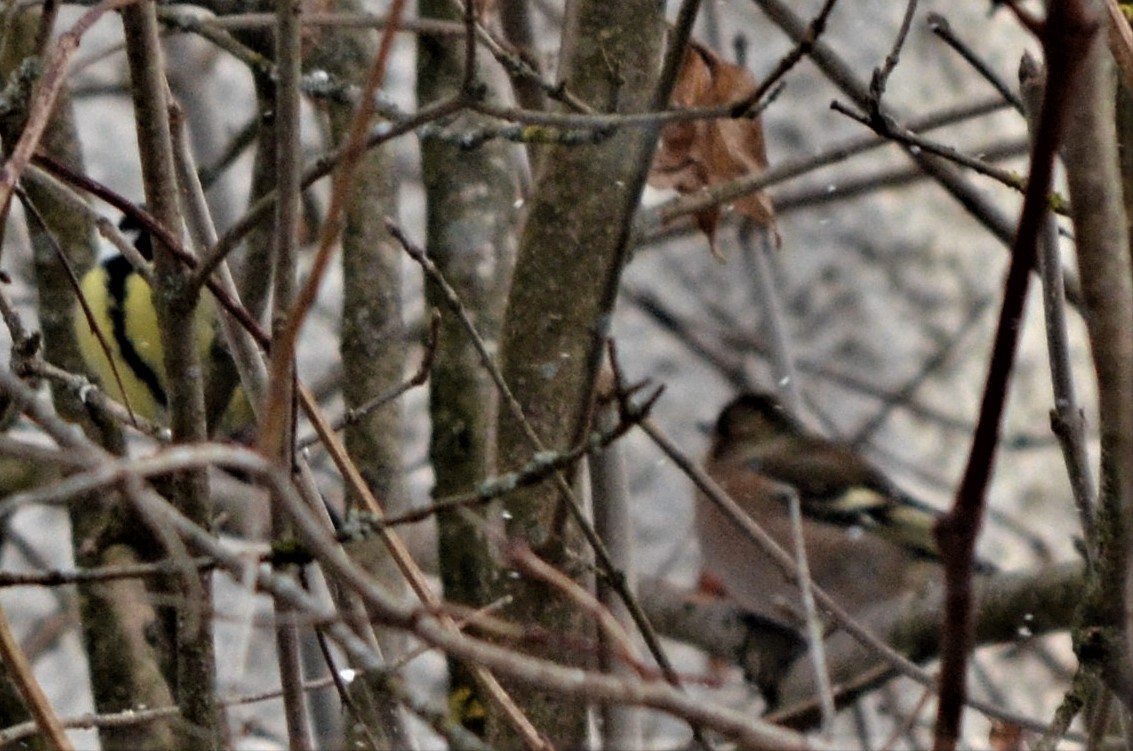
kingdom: Animalia
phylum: Chordata
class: Aves
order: Passeriformes
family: Fringillidae
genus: Fringilla
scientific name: Fringilla coelebs
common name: Common chaffinch
